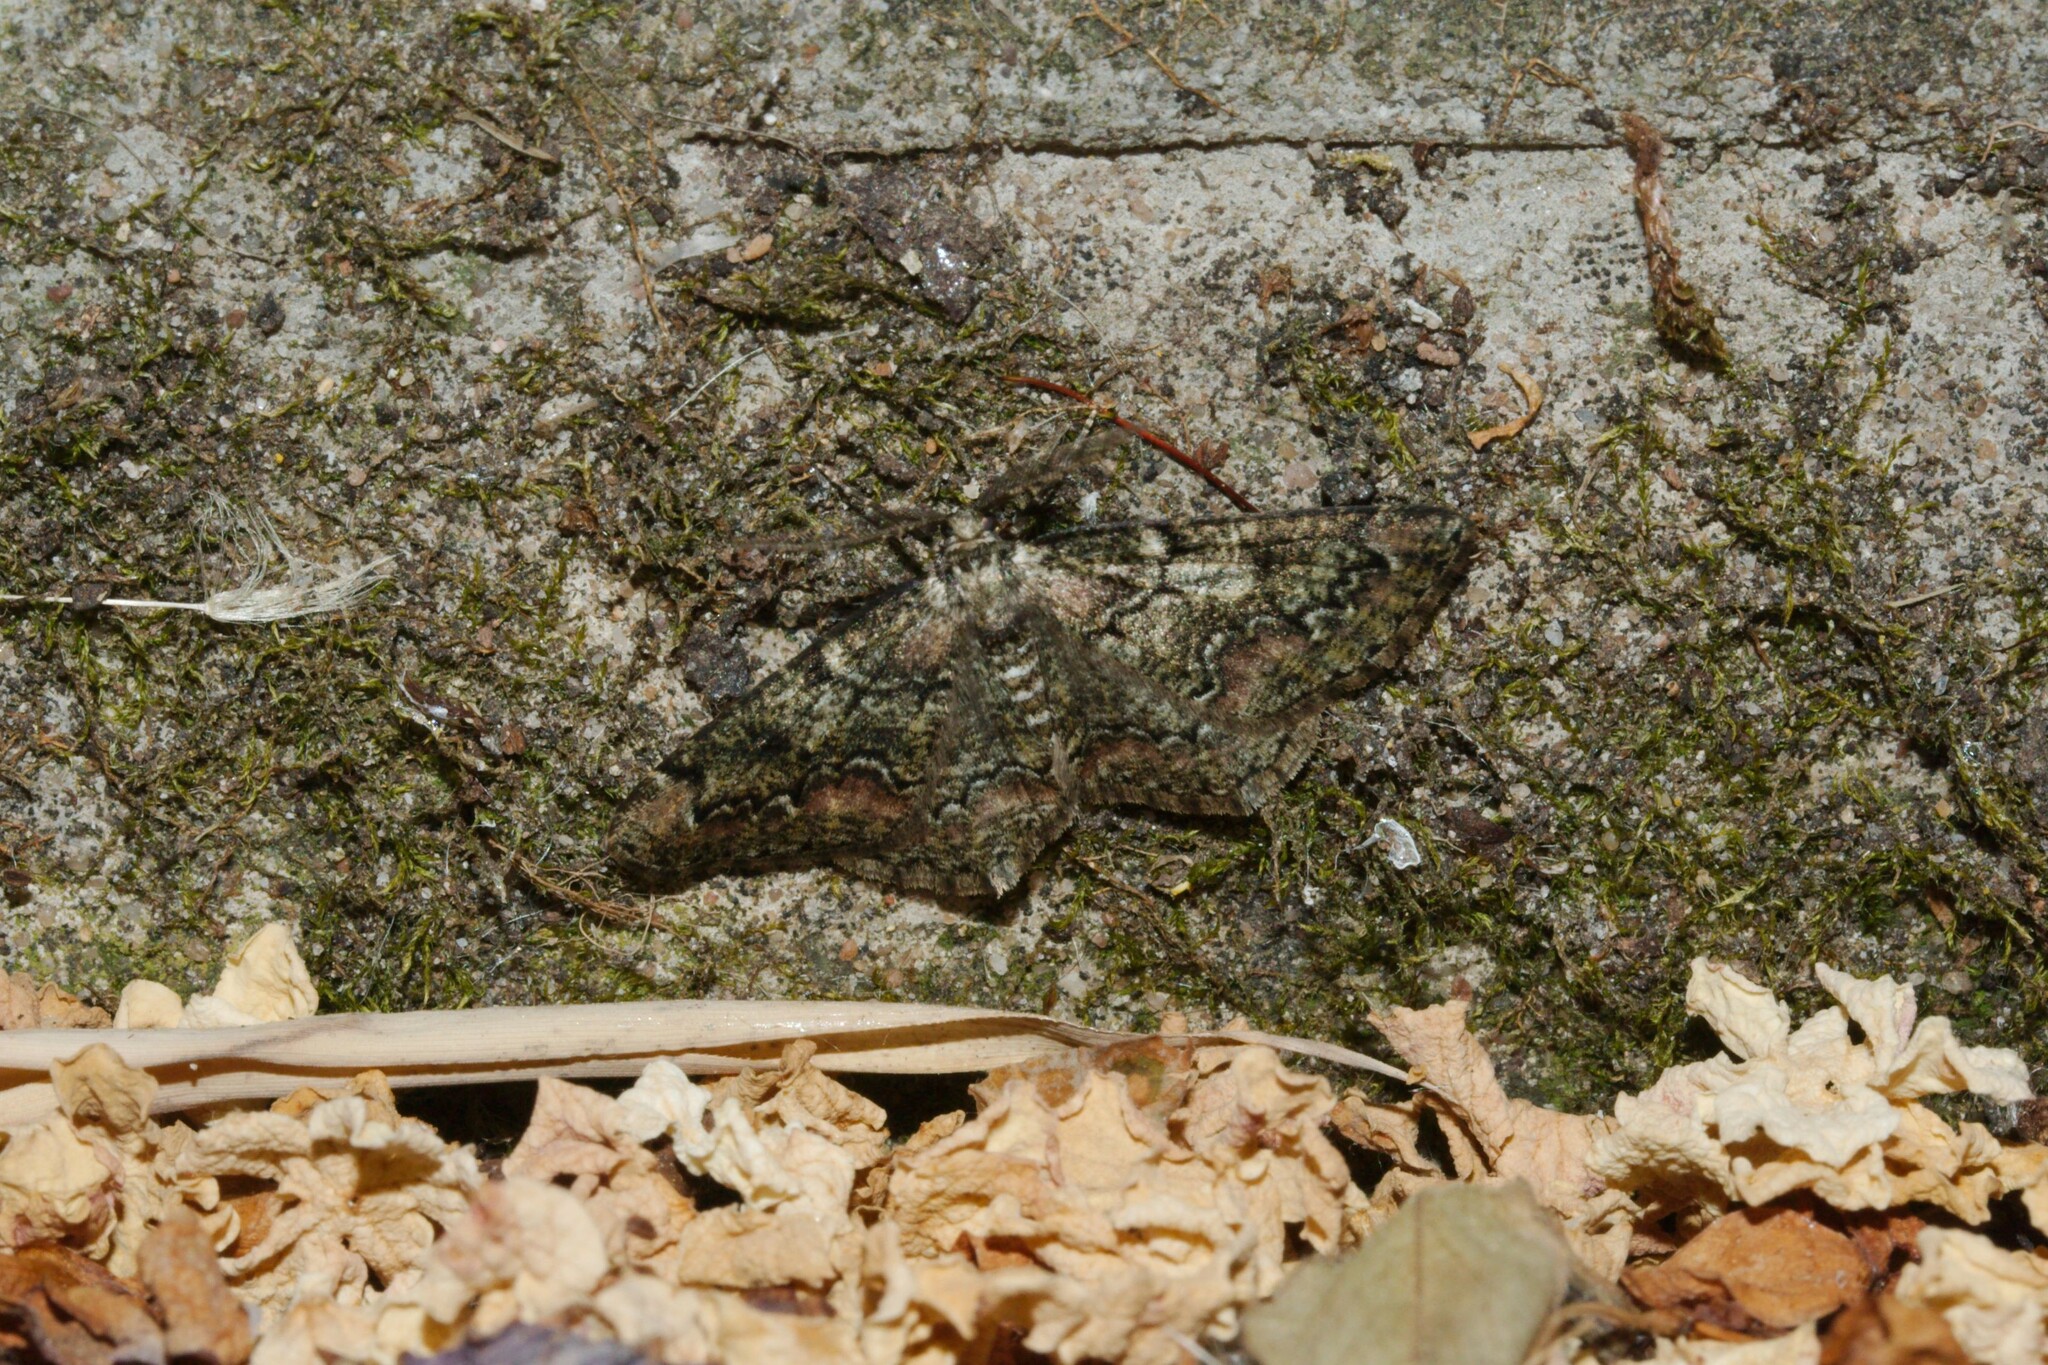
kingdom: Animalia
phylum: Arthropoda
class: Insecta
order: Lepidoptera
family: Geometridae
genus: Cleorodes
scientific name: Cleorodes lichenaria
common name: Brussels lace
